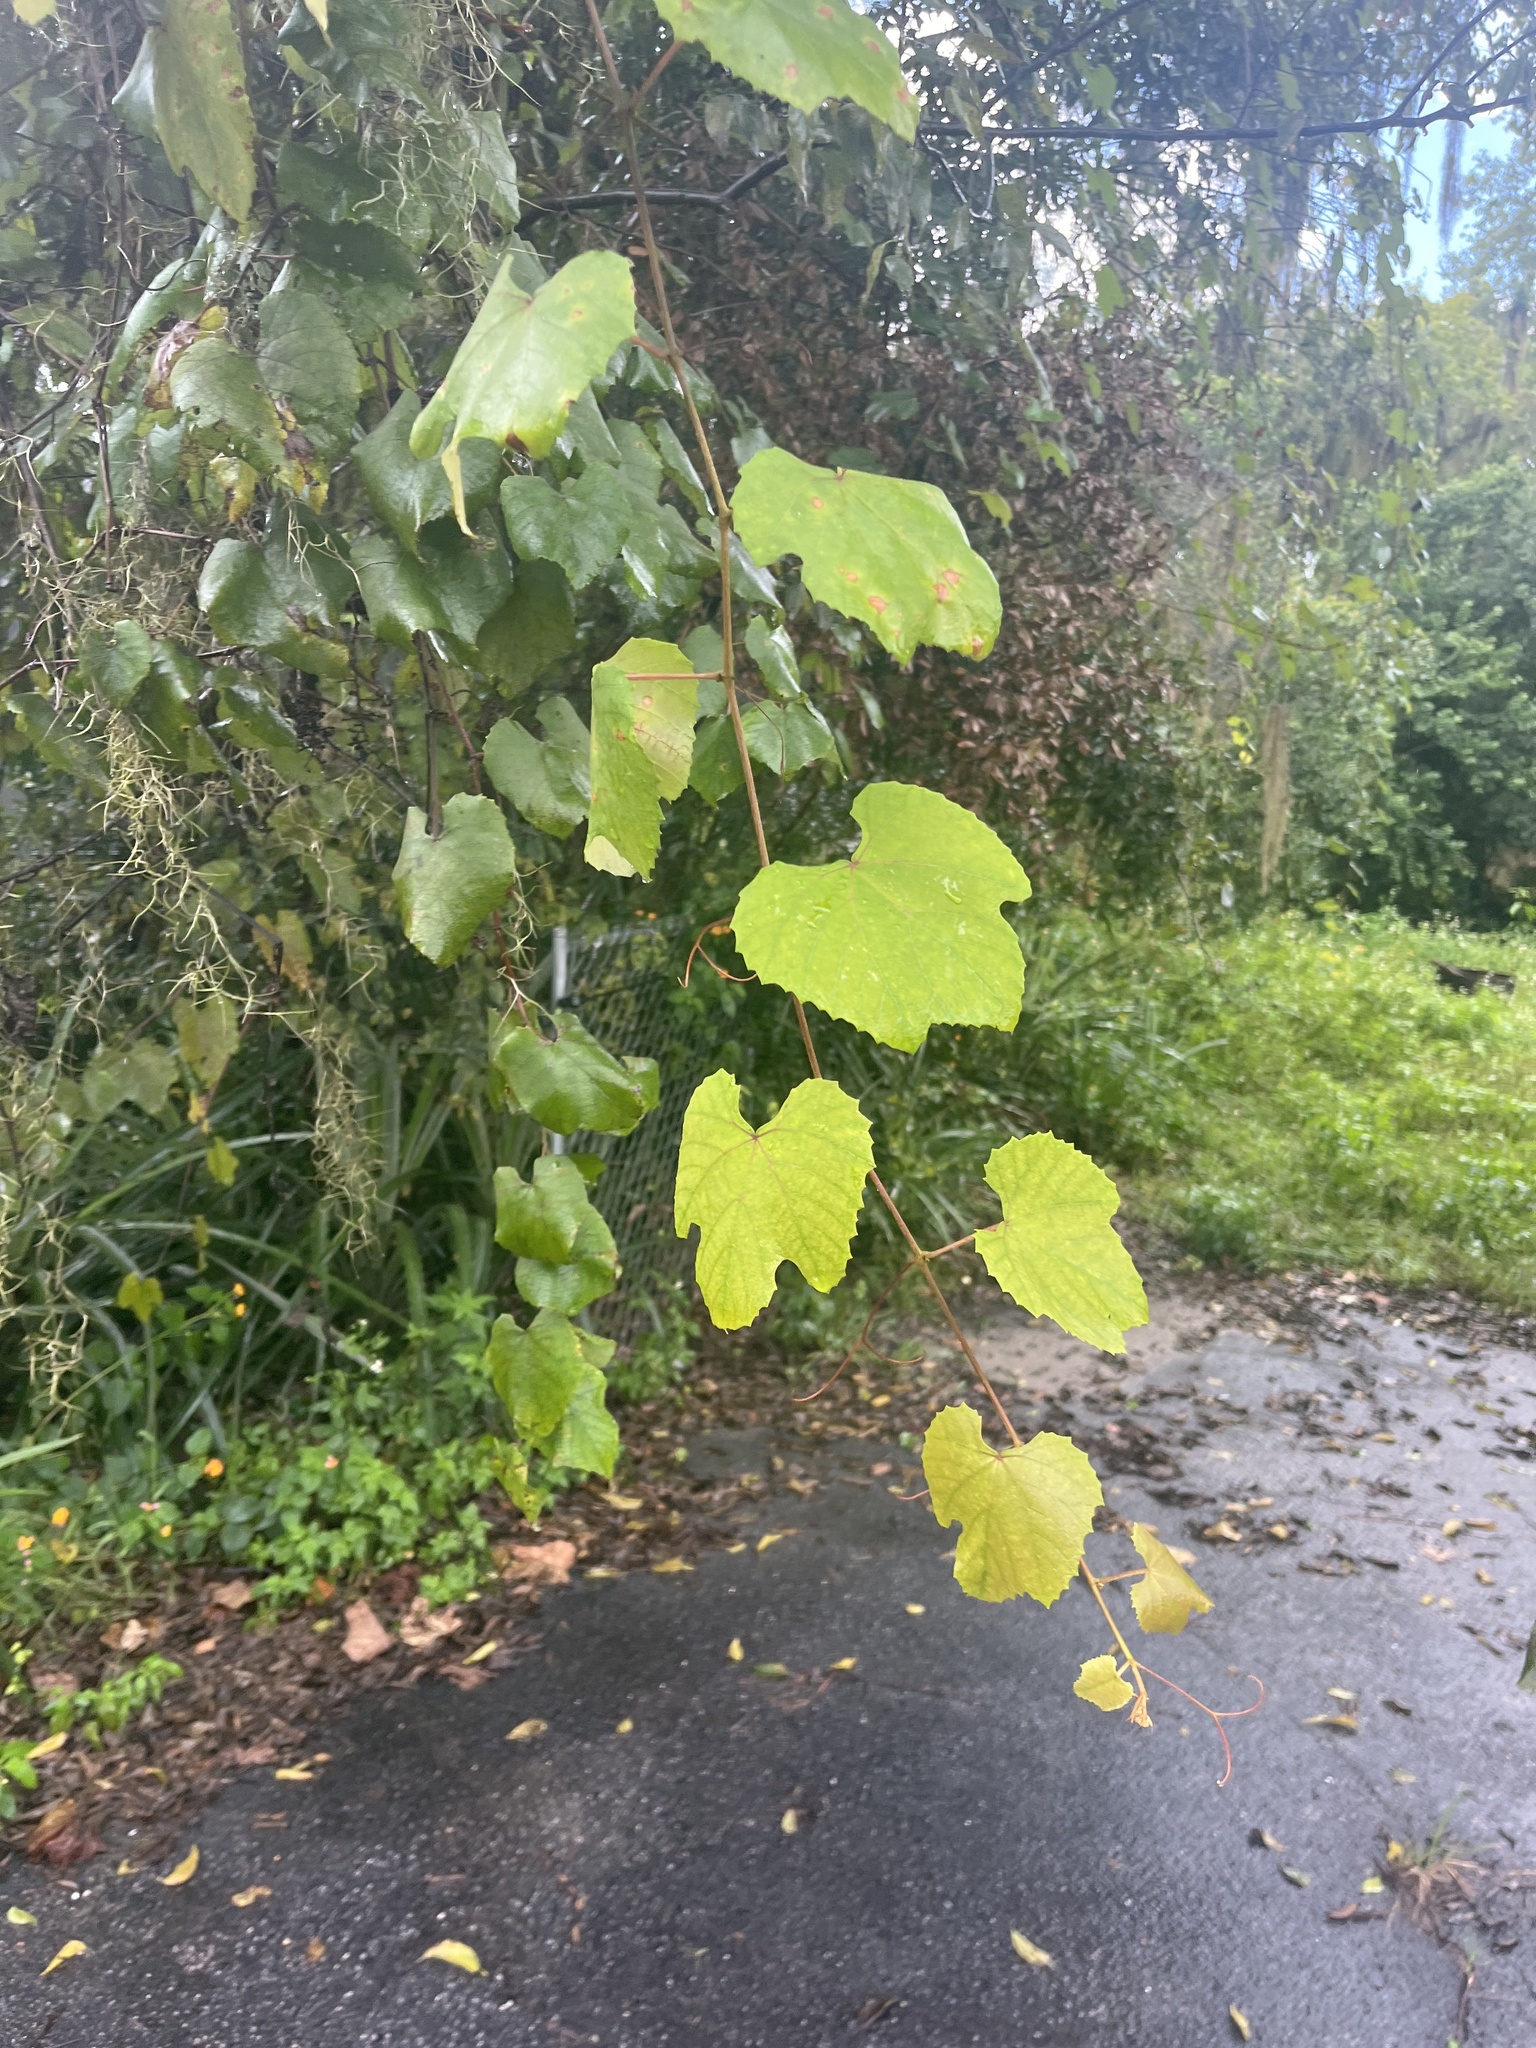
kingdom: Plantae
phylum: Tracheophyta
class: Magnoliopsida
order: Vitales
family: Vitaceae
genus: Vitis
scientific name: Vitis cinerea
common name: Ashy grape
